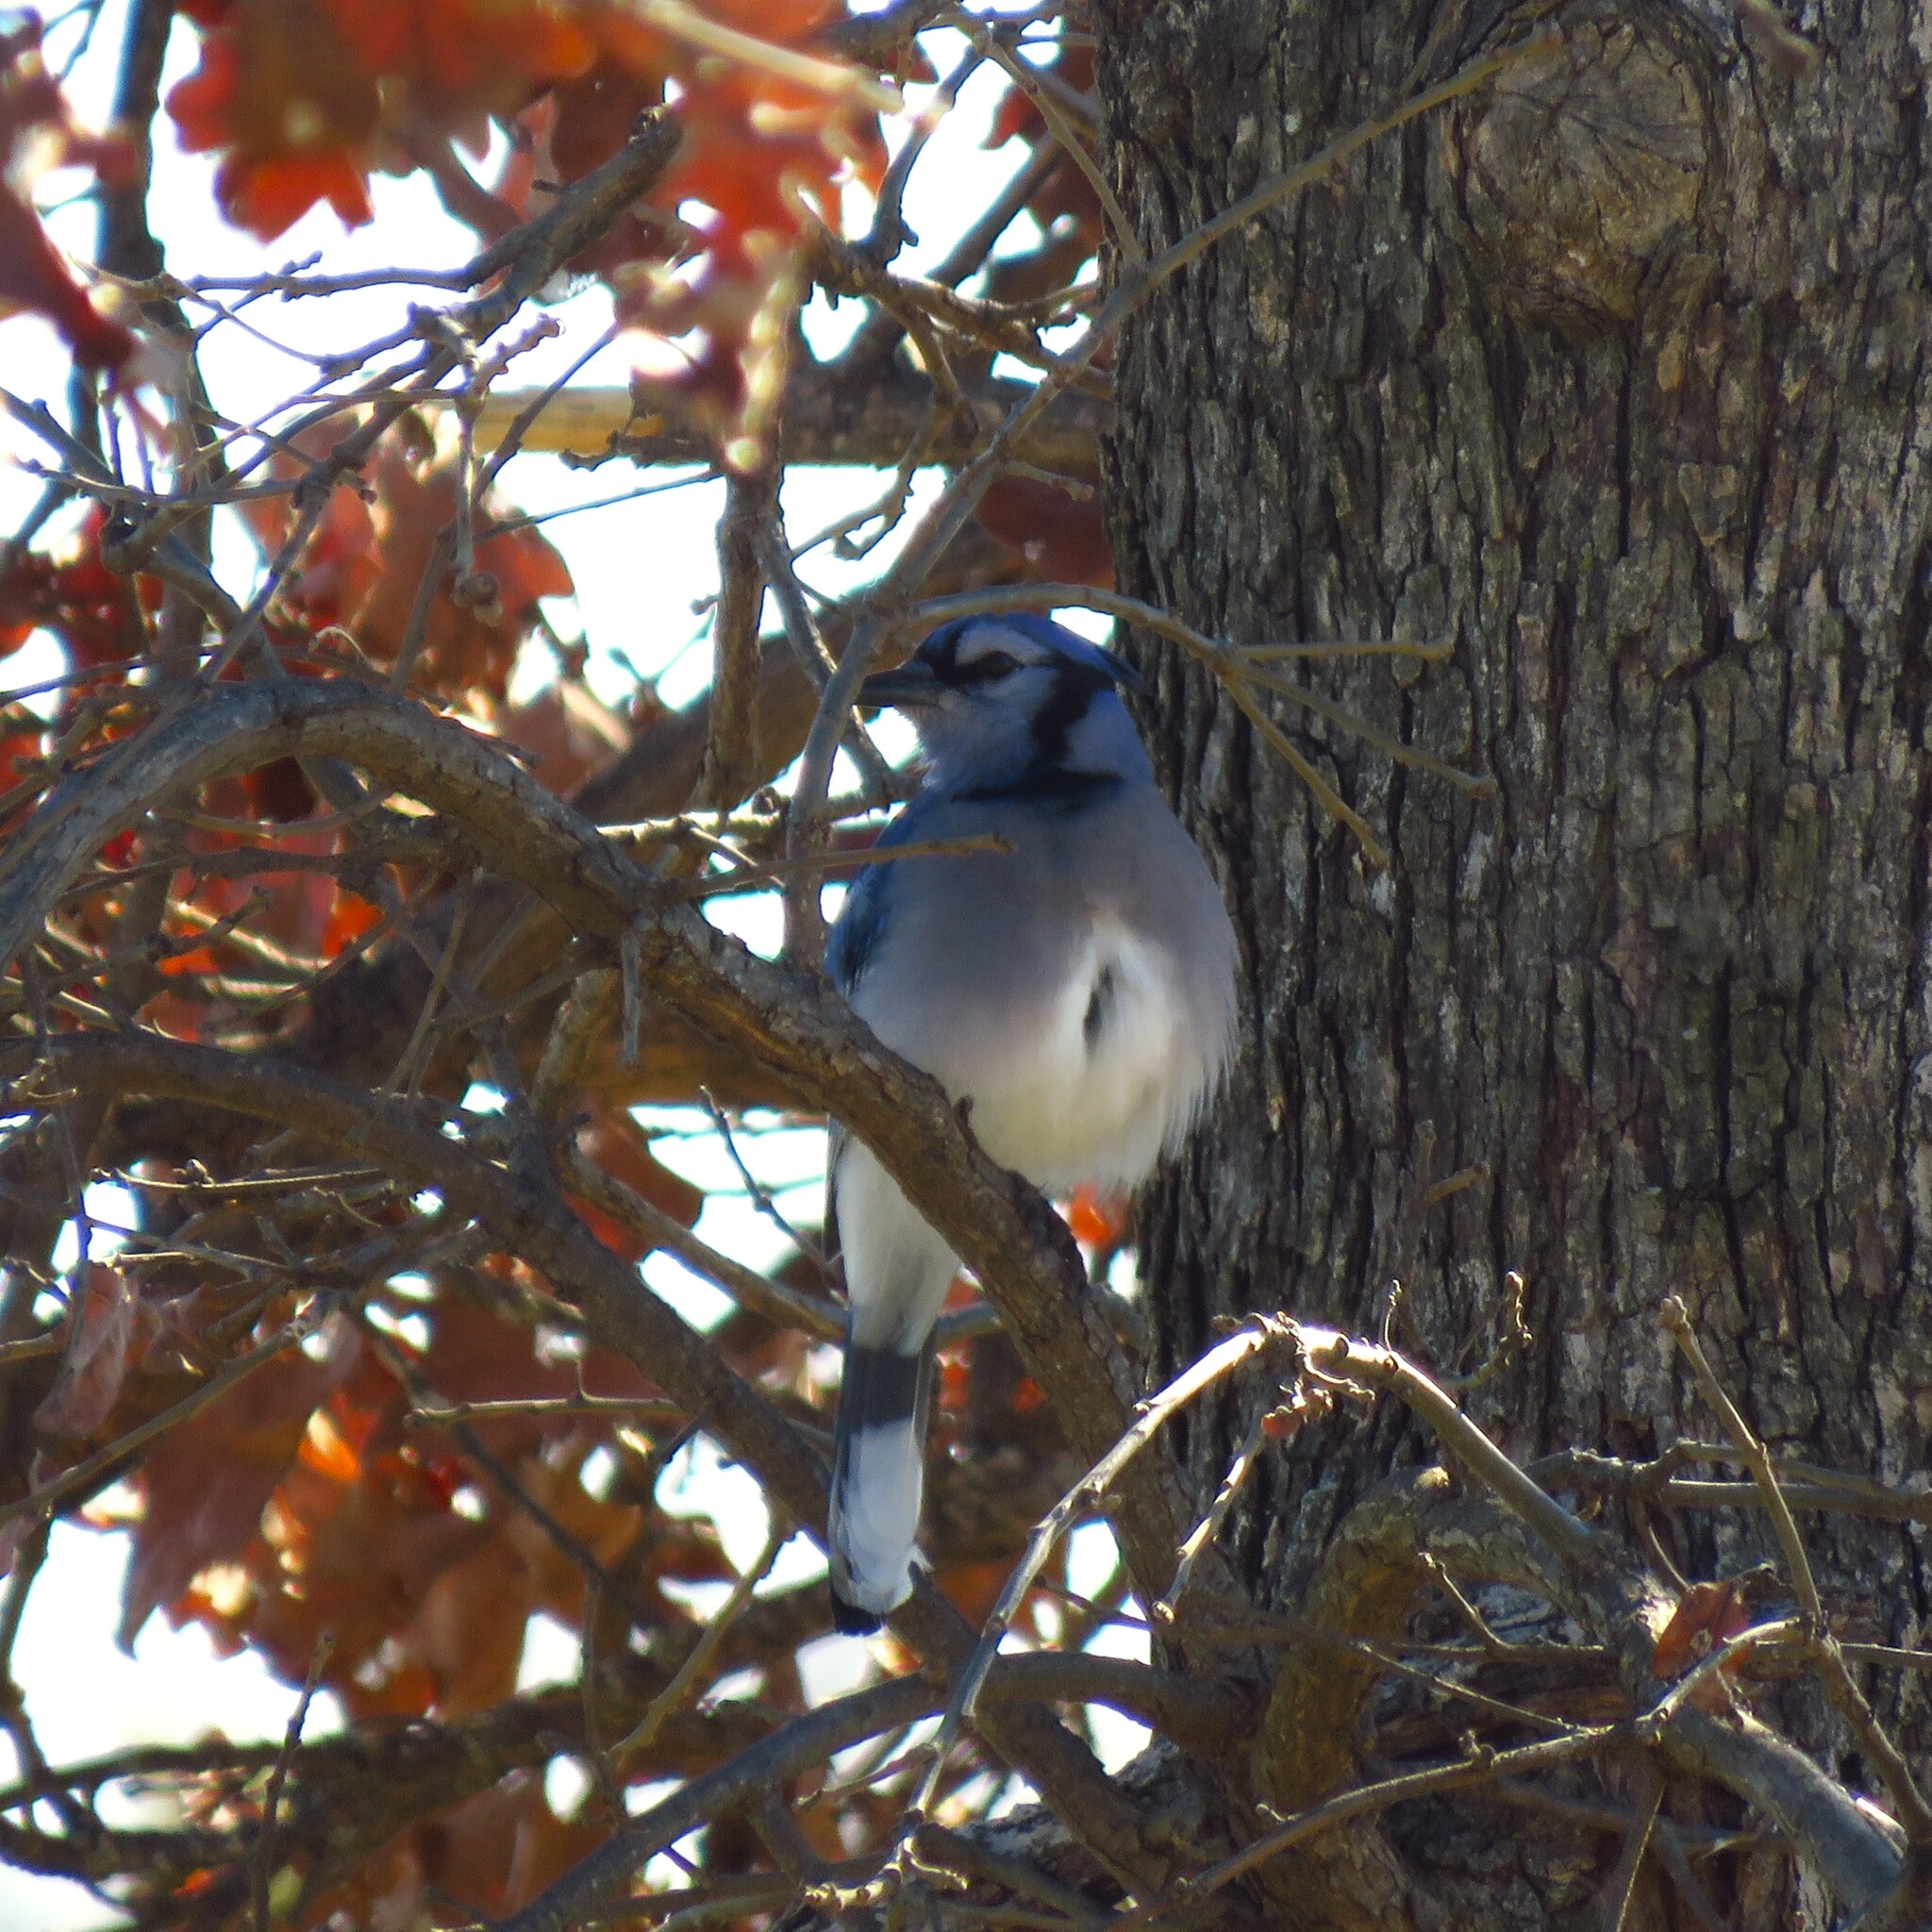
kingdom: Animalia
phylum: Chordata
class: Aves
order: Passeriformes
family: Corvidae
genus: Cyanocitta
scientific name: Cyanocitta cristata
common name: Blue jay
